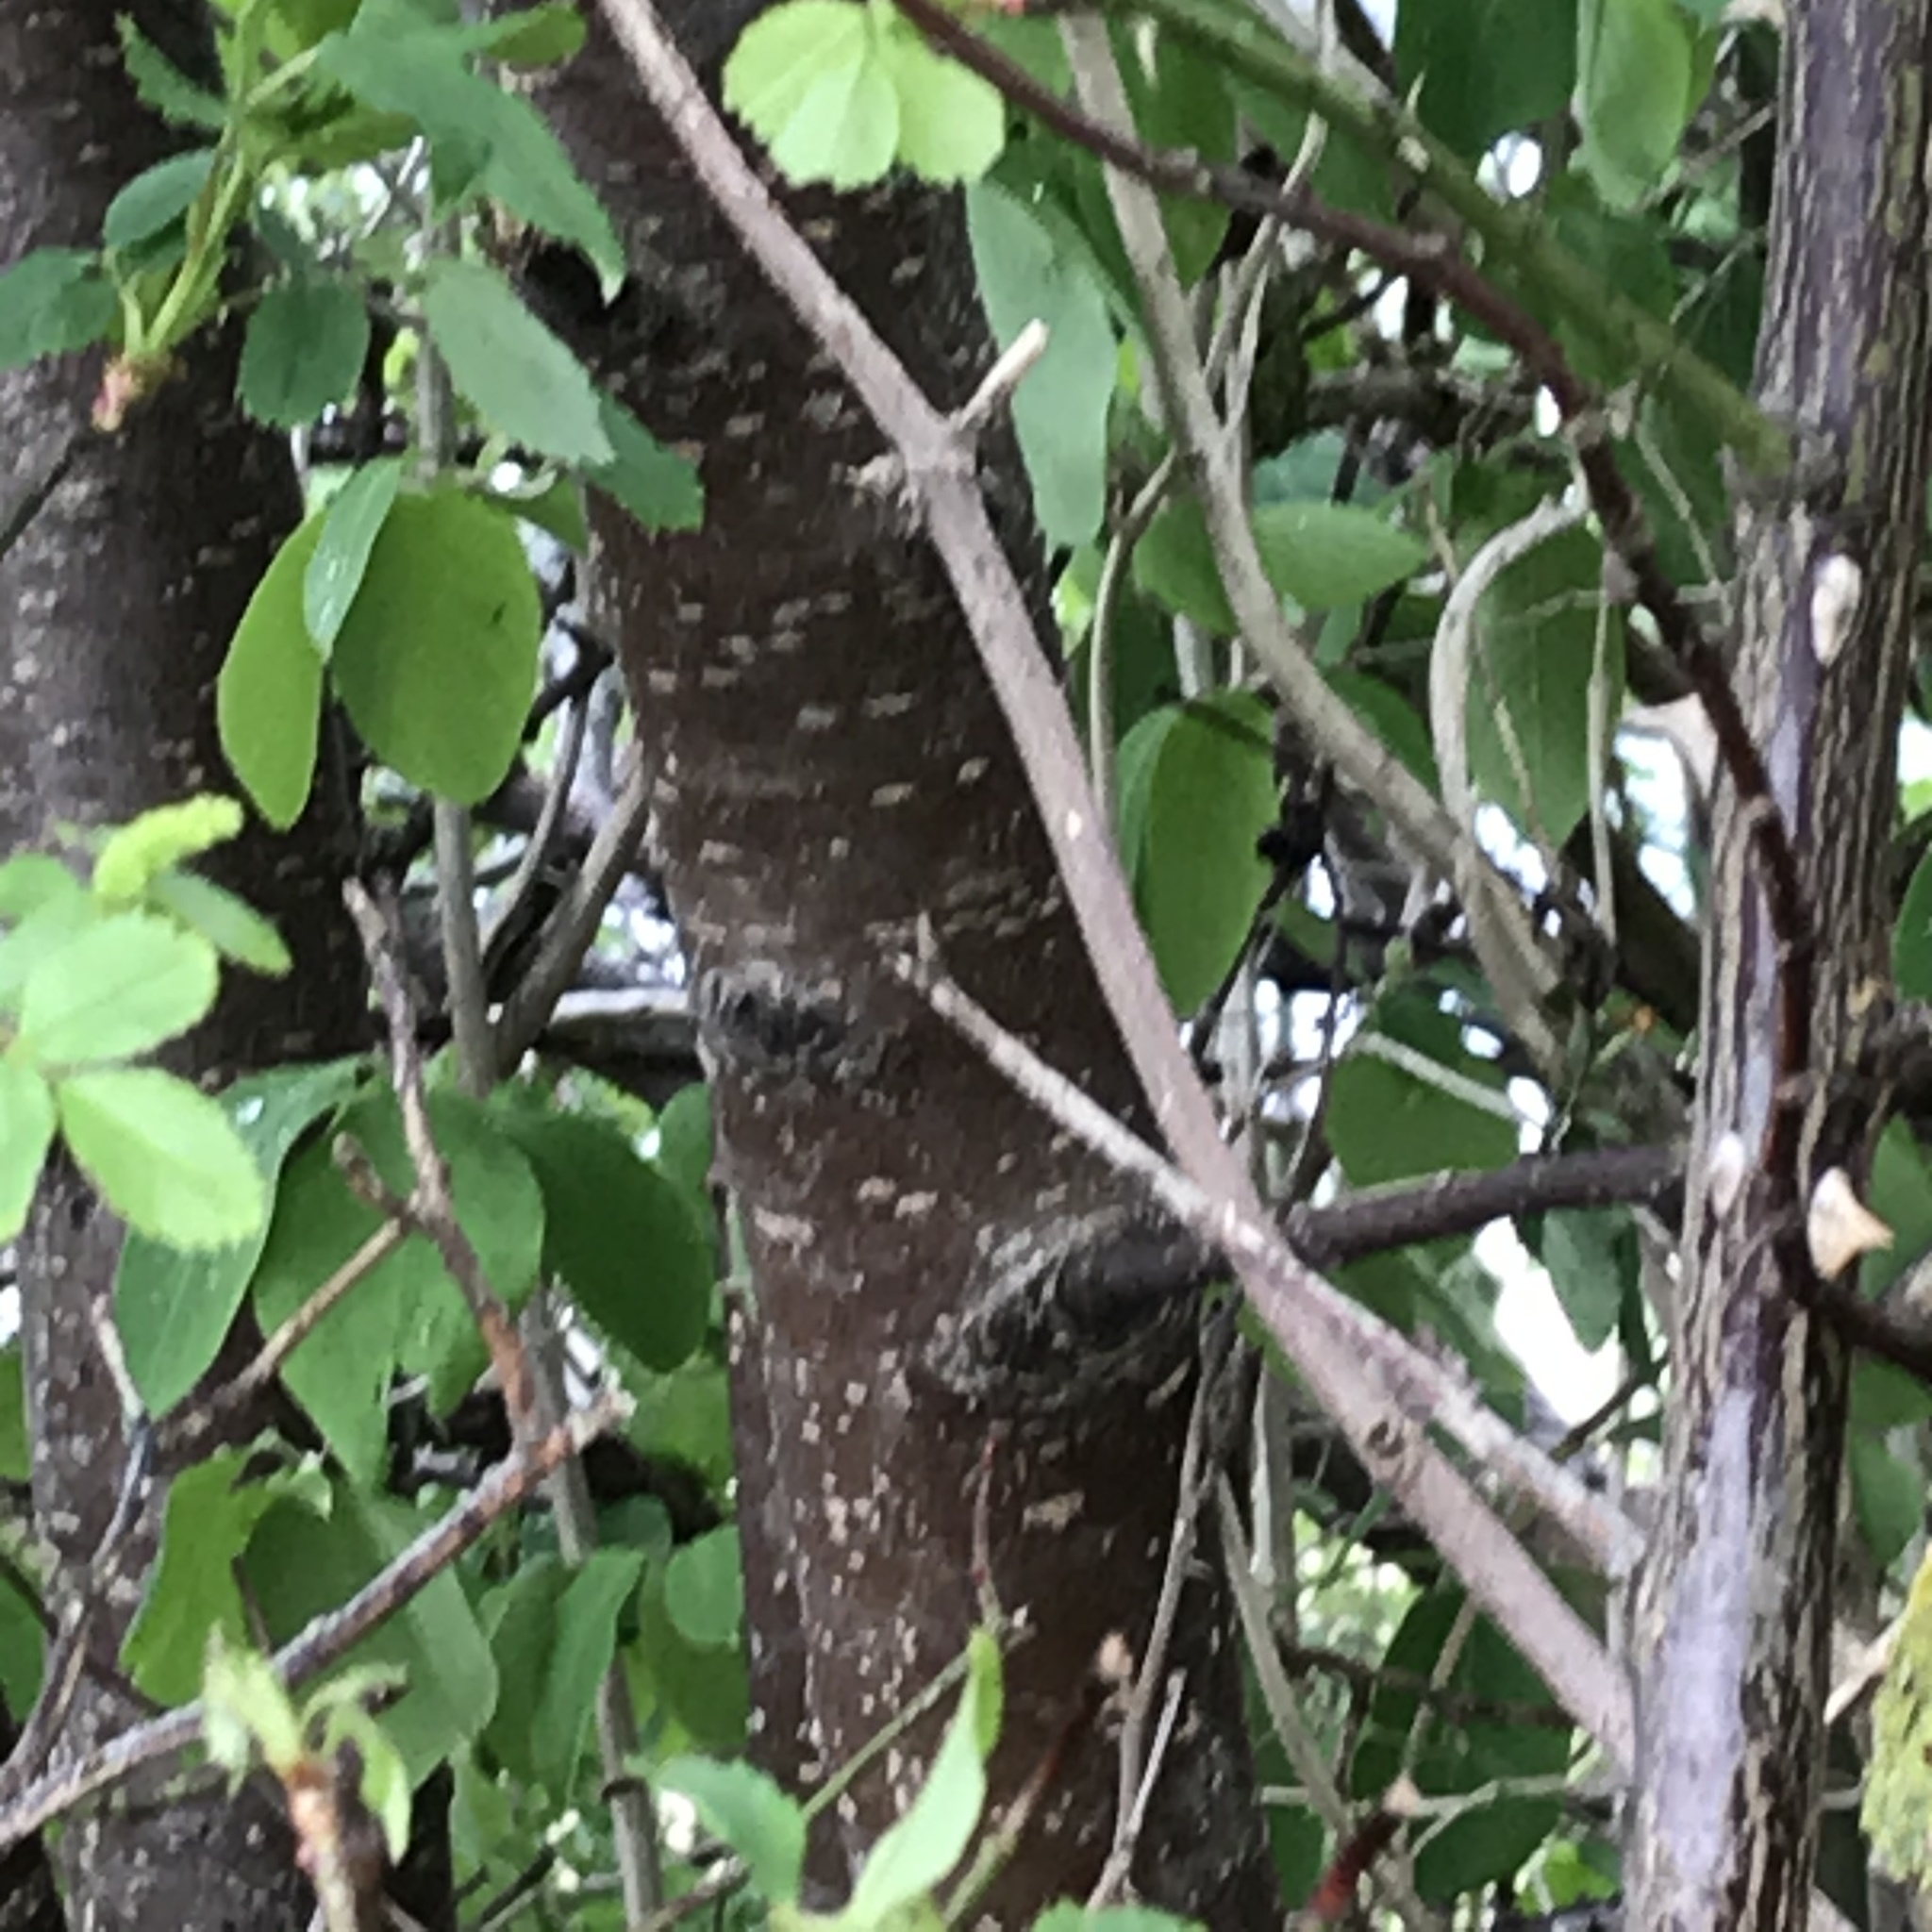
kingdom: Plantae
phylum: Tracheophyta
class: Magnoliopsida
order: Rosales
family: Rosaceae
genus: Prunus
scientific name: Prunus padus
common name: Bird cherry
